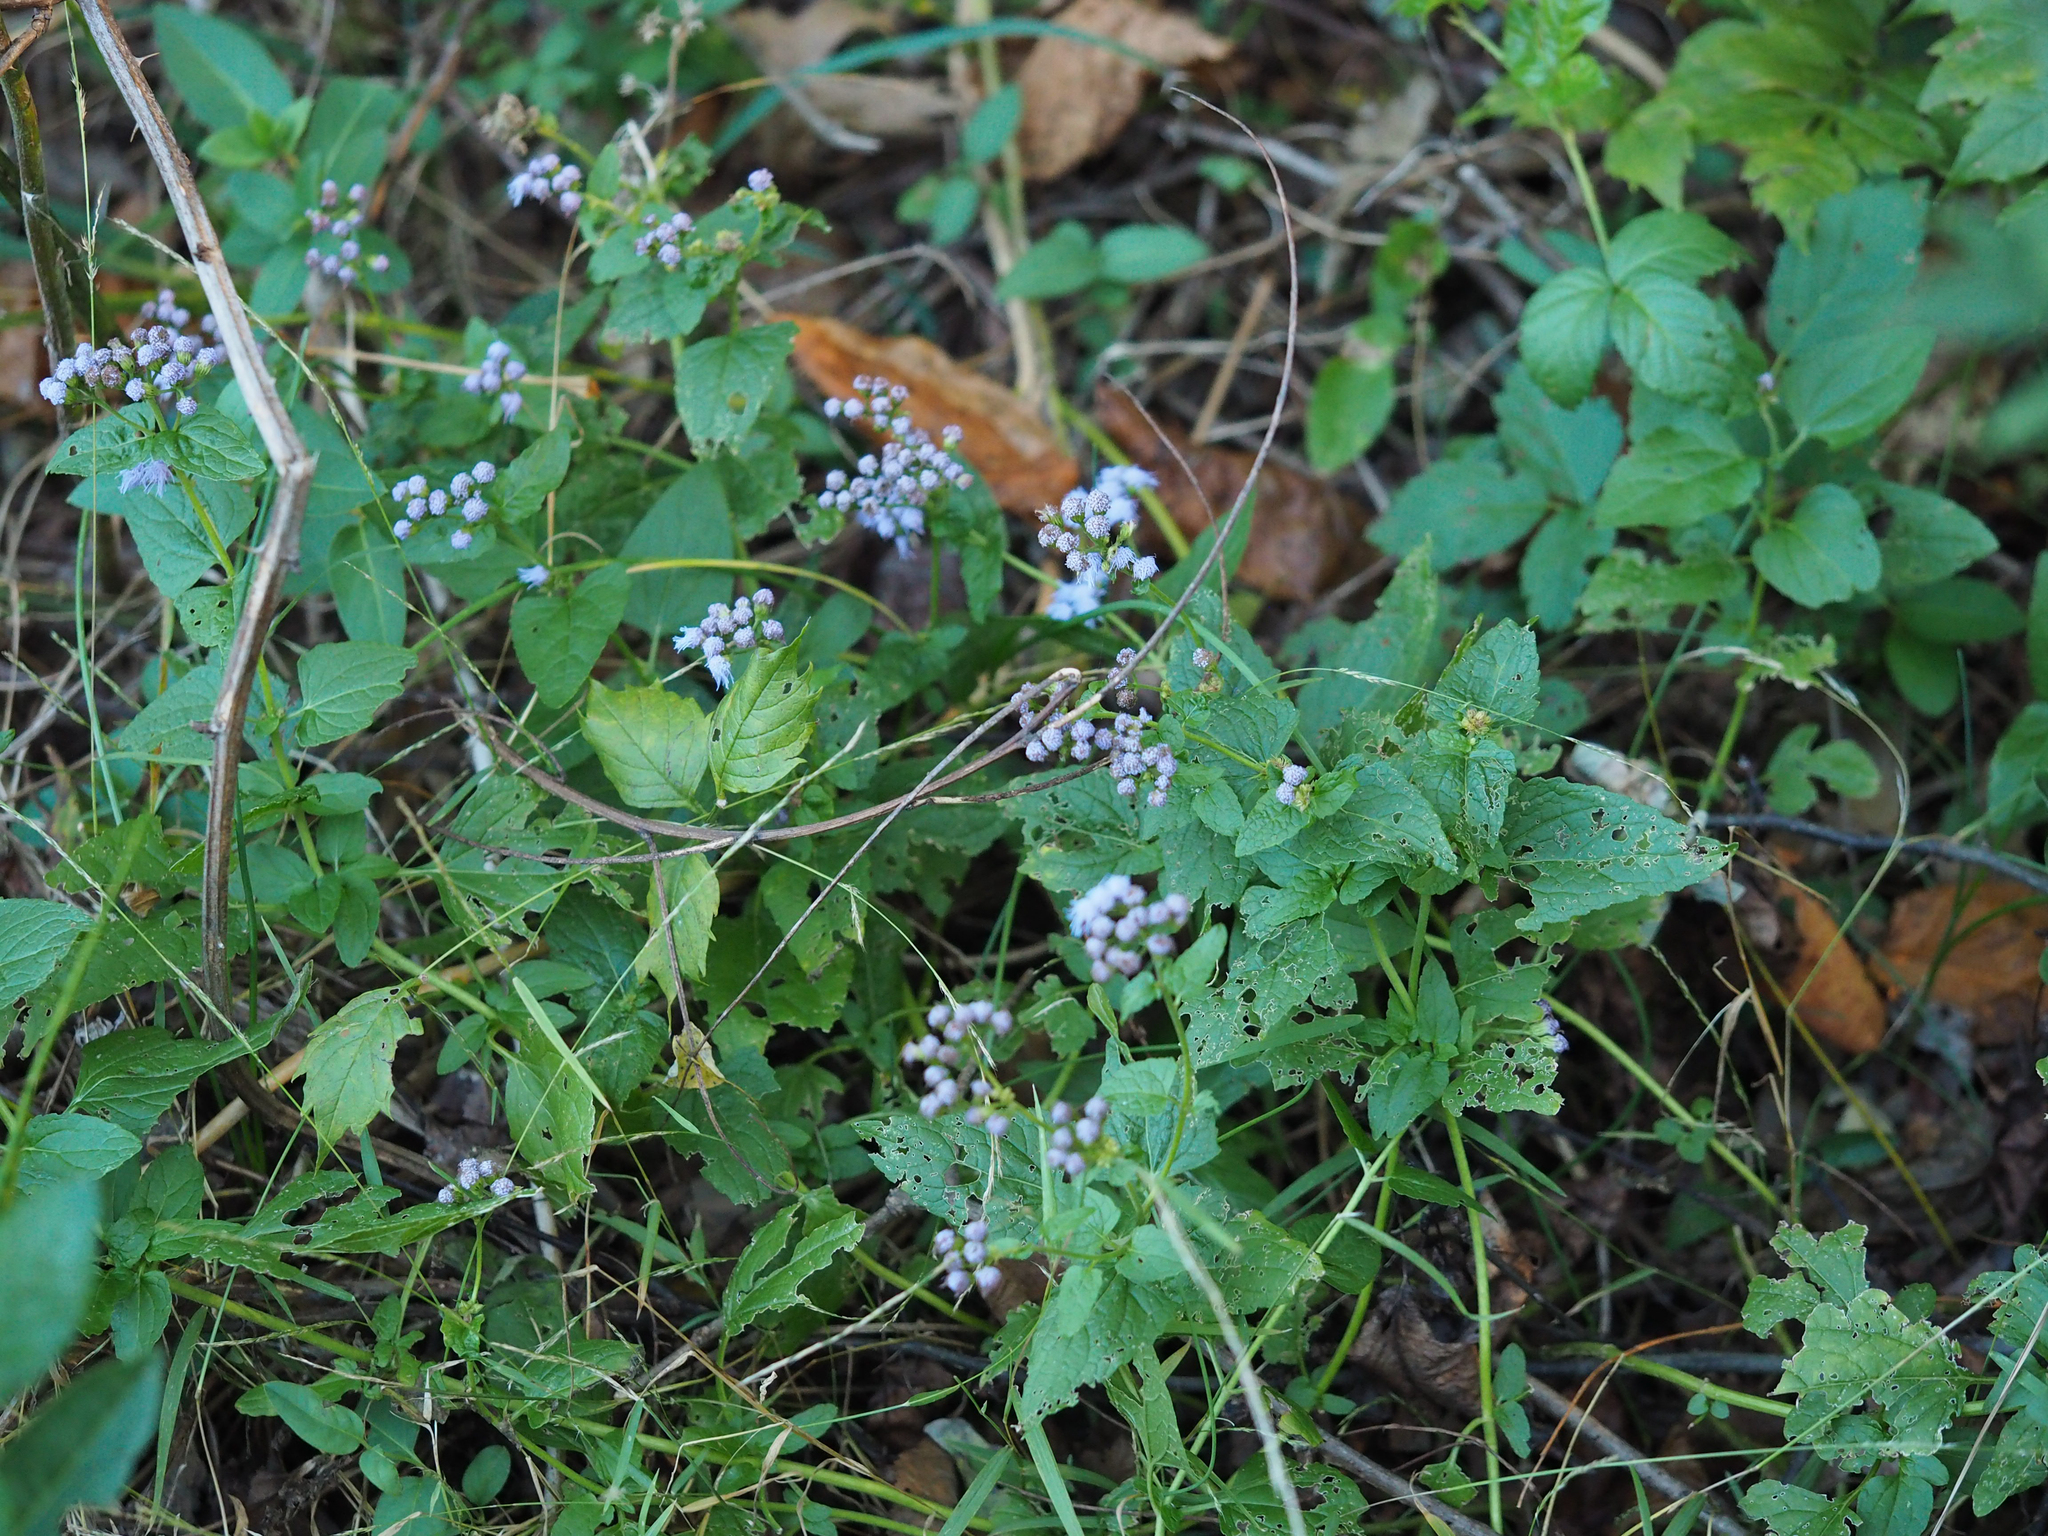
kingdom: Plantae
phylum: Tracheophyta
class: Magnoliopsida
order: Asterales
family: Asteraceae
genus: Conoclinium
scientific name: Conoclinium coelestinum
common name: Blue mistflower
